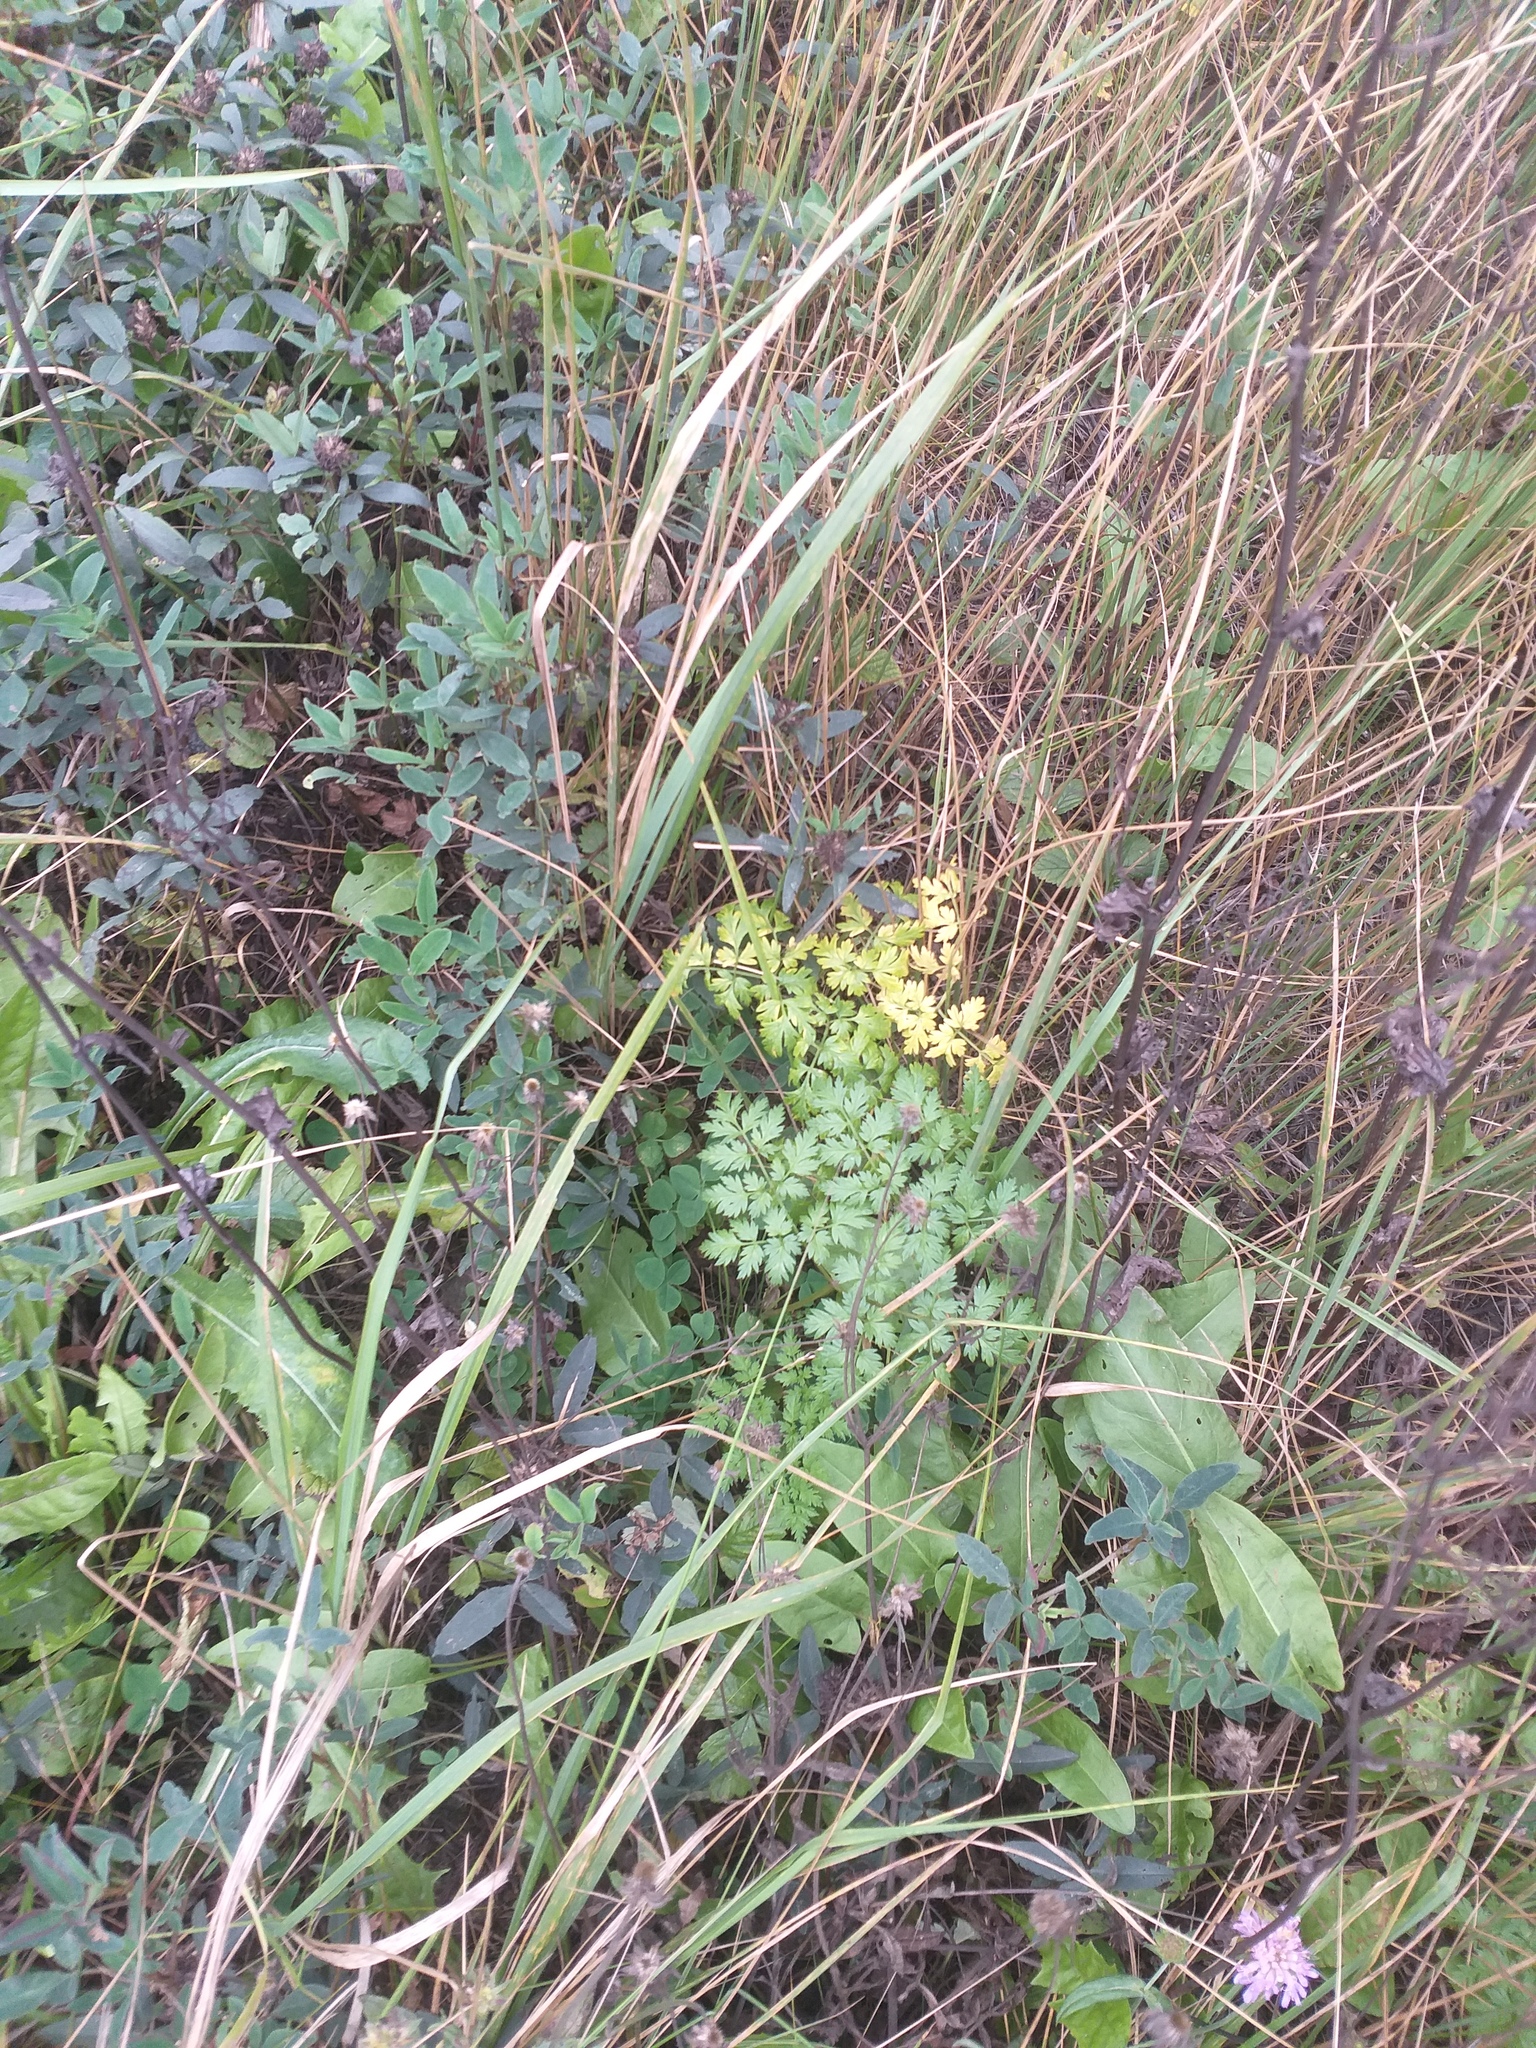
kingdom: Plantae
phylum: Tracheophyta
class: Magnoliopsida
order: Apiales
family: Apiaceae
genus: Anthriscus
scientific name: Anthriscus sylvestris
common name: Cow parsley
